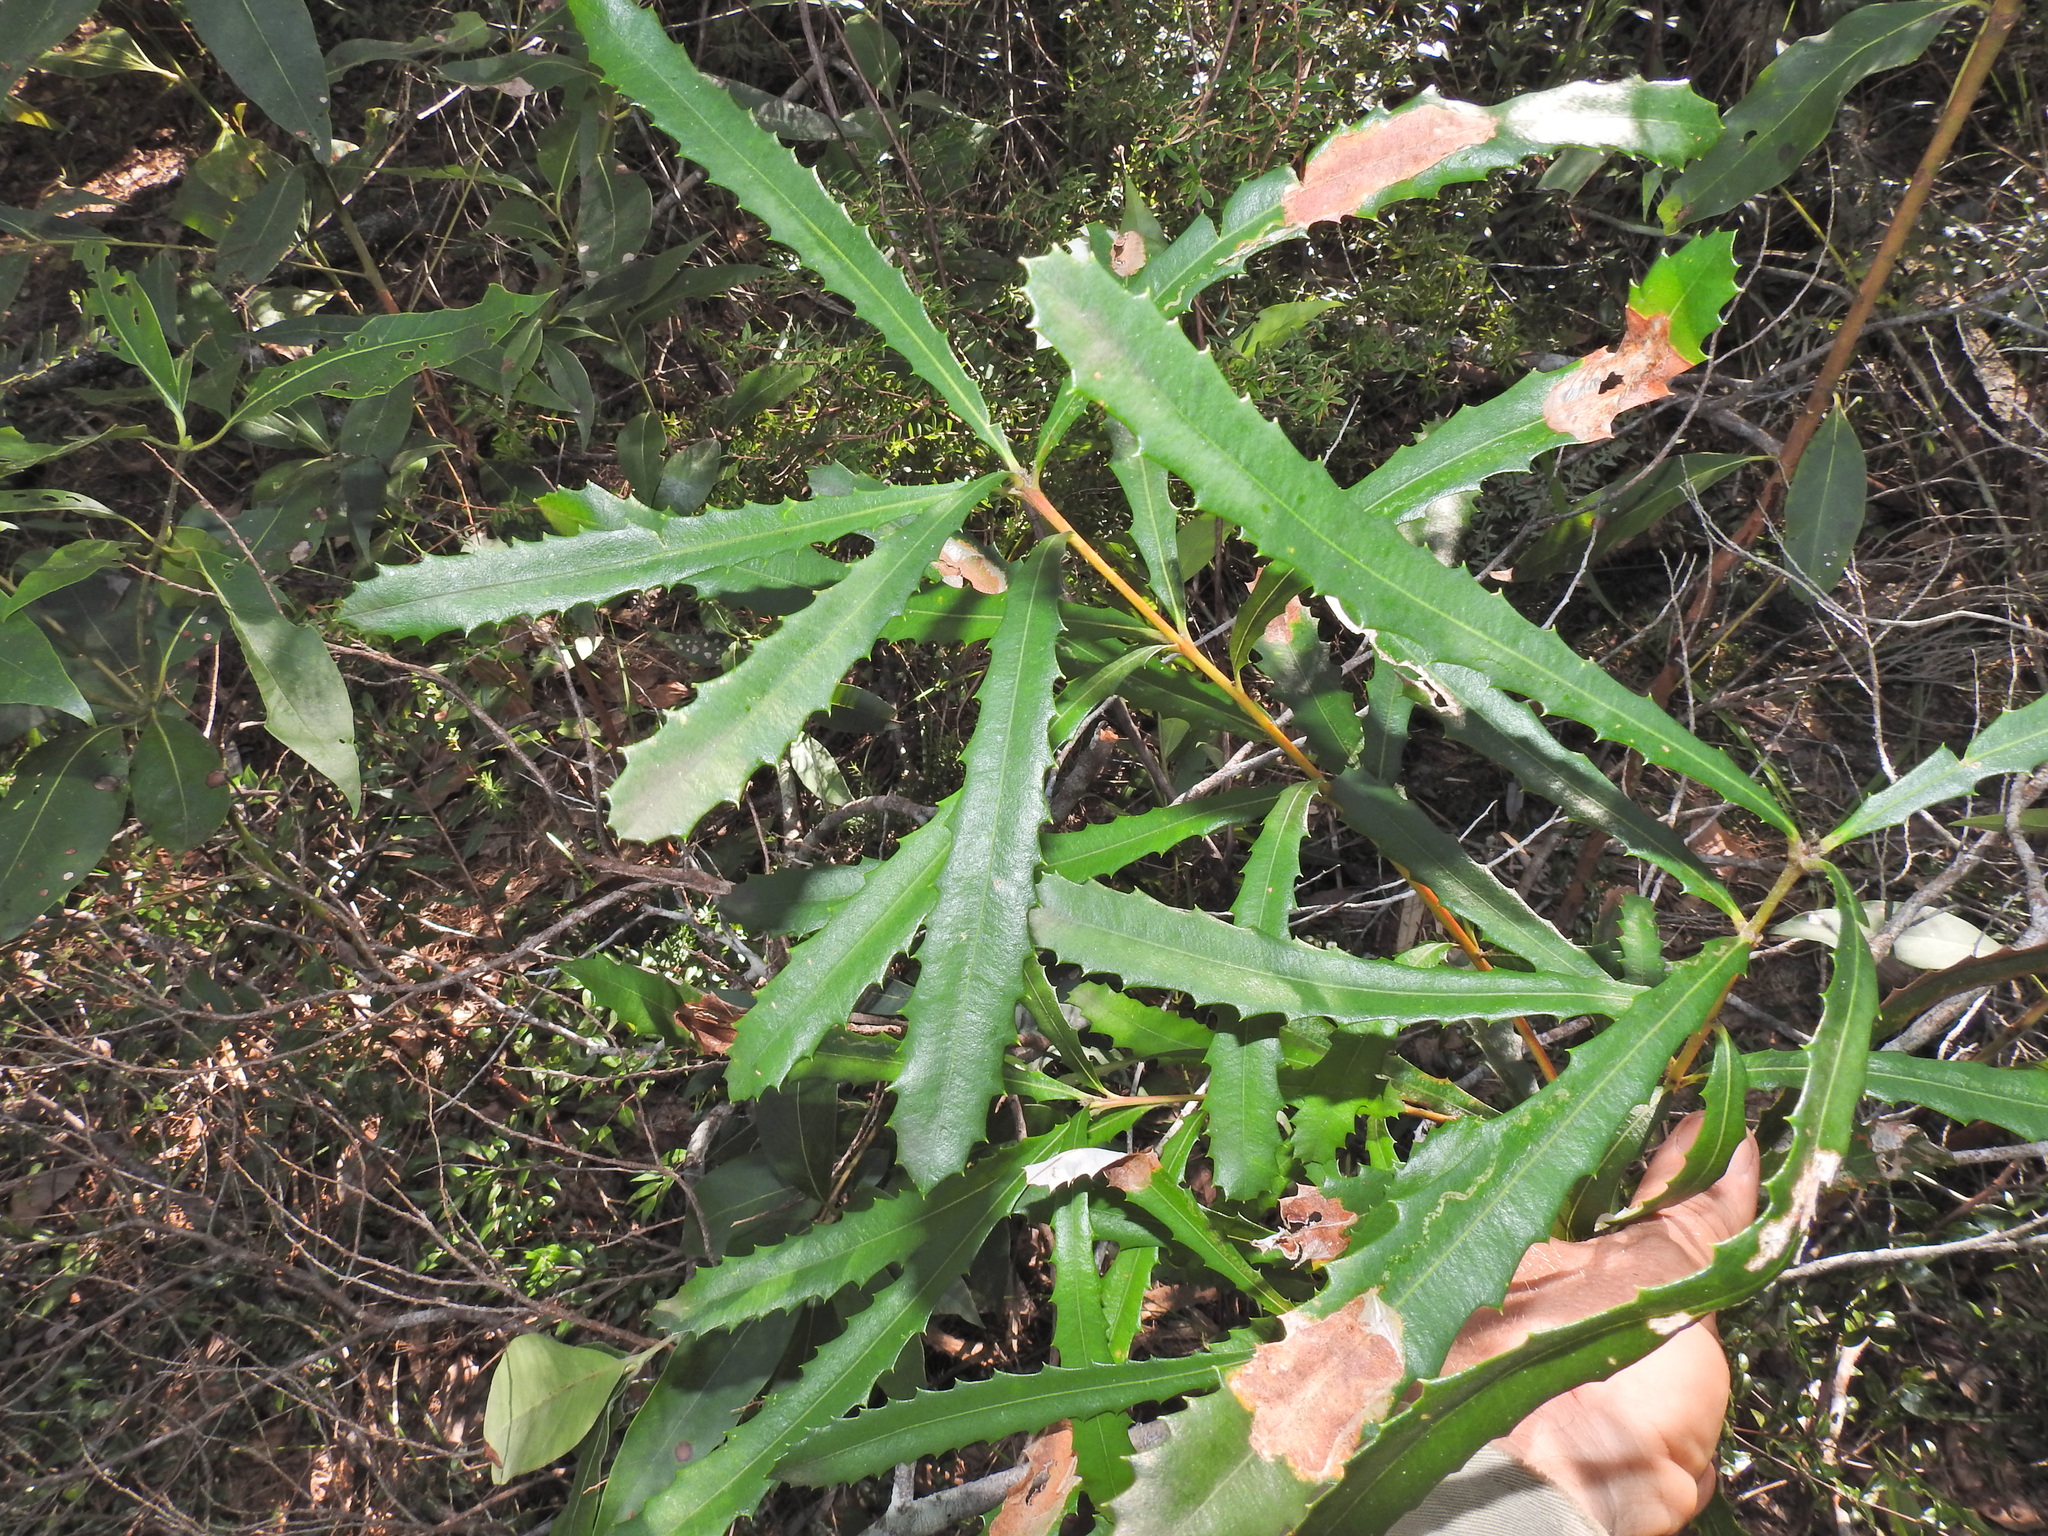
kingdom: Plantae
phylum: Tracheophyta
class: Magnoliopsida
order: Proteales
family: Proteaceae
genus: Banksia
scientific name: Banksia integrifolia
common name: White-honeysuckle
